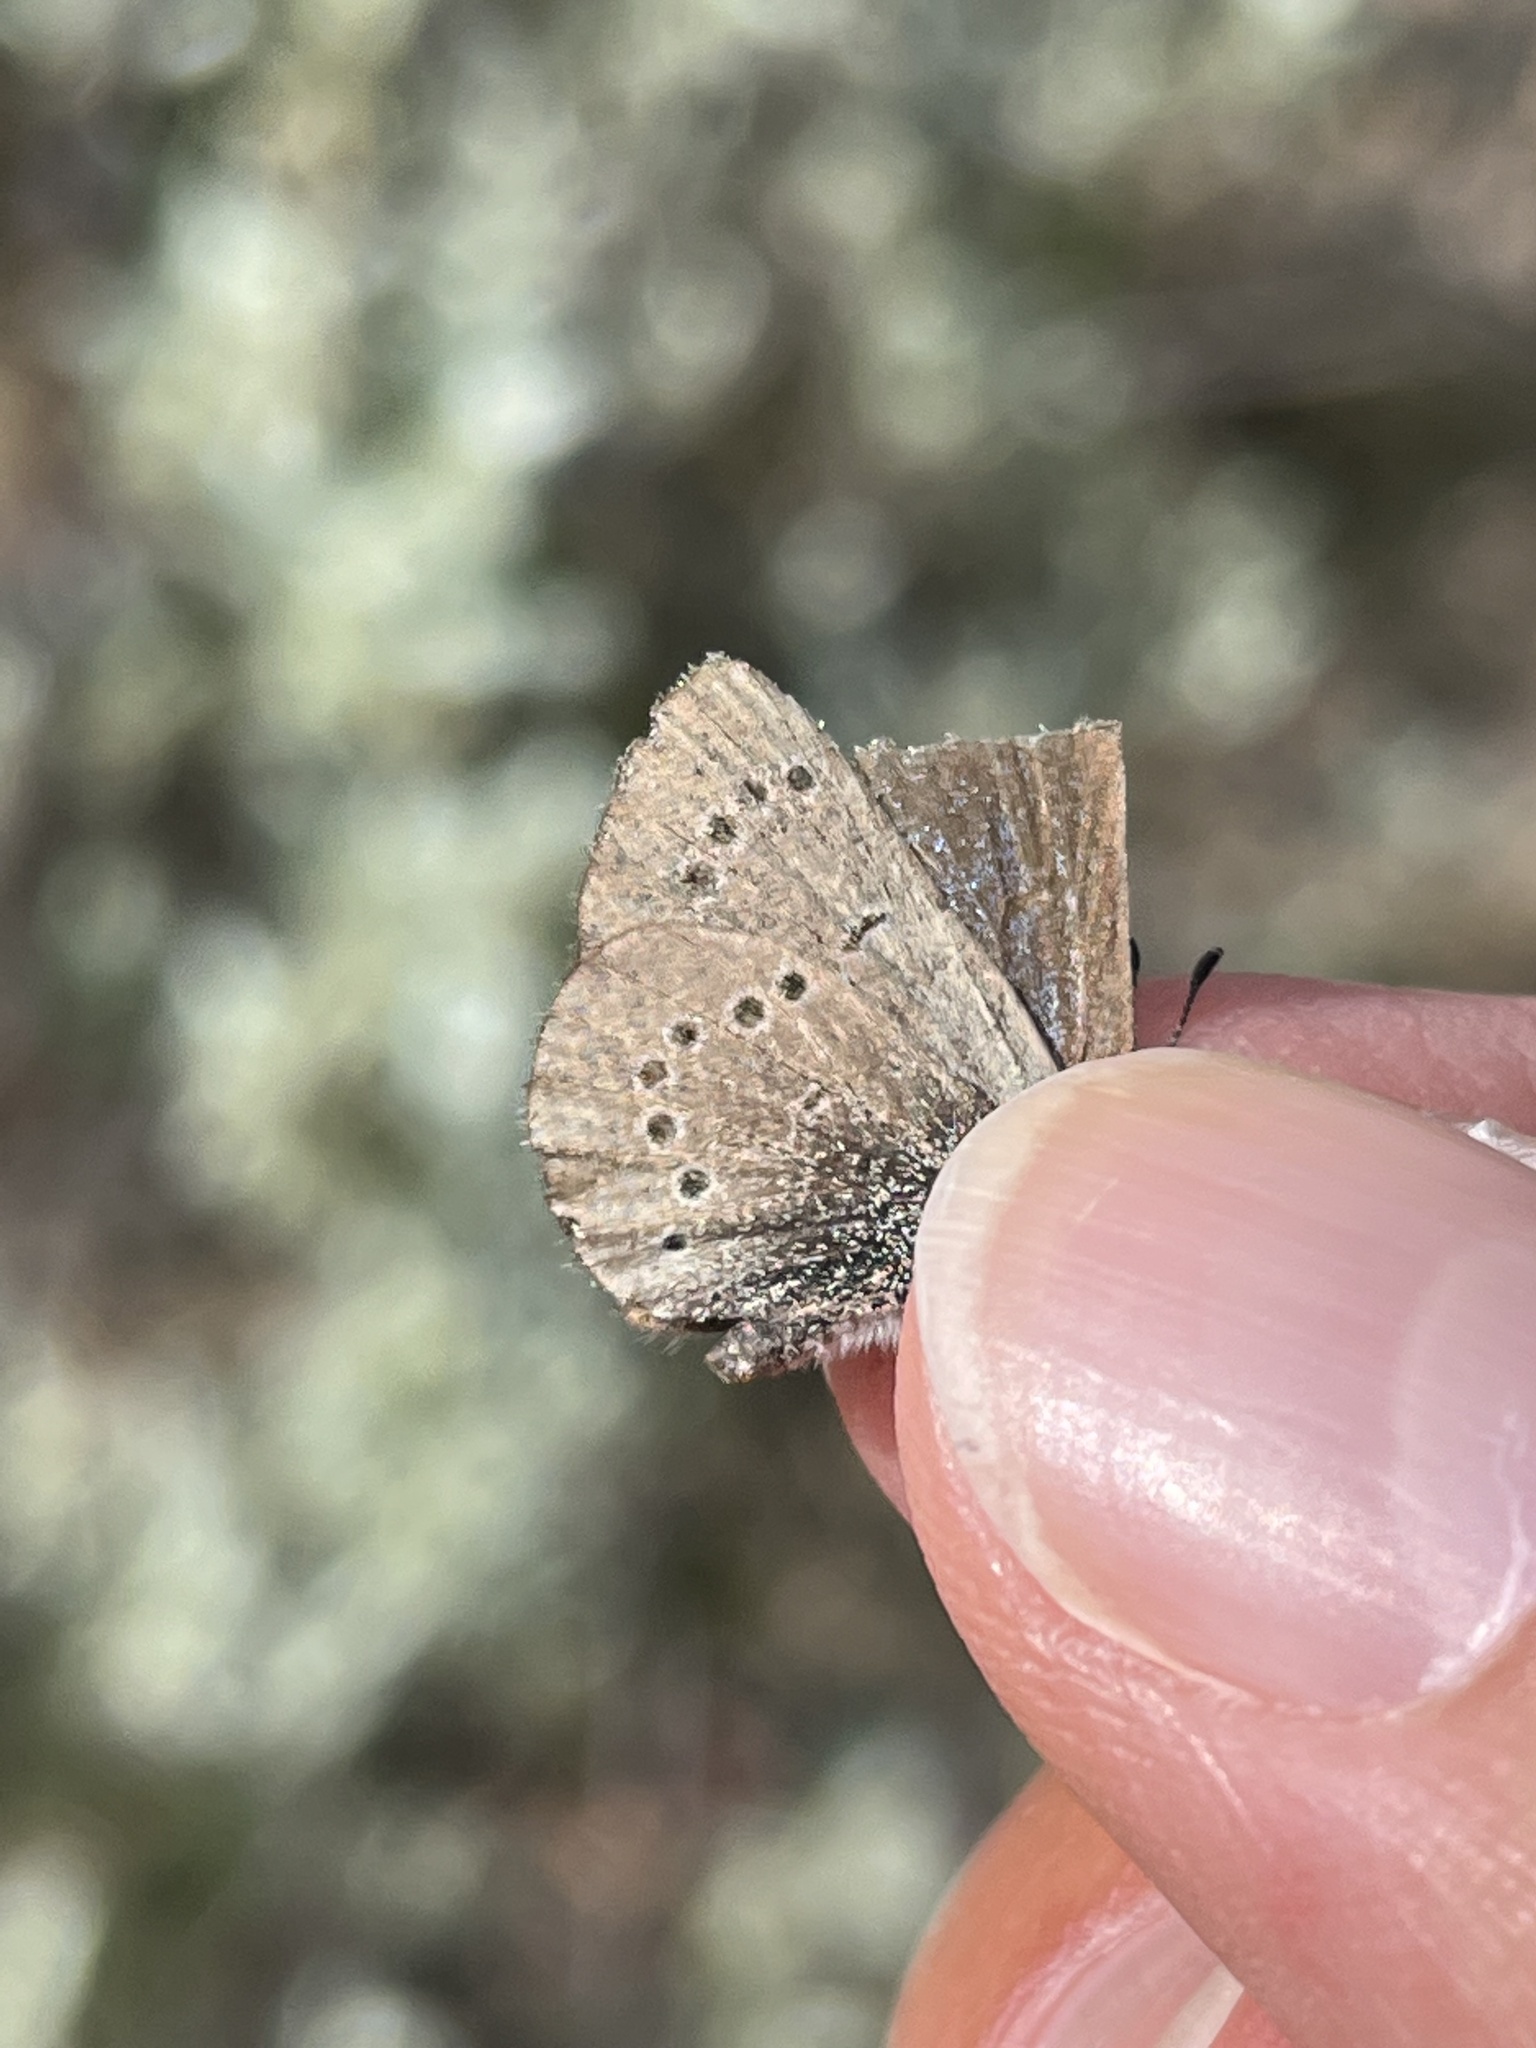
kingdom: Animalia
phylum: Arthropoda
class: Insecta
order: Lepidoptera
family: Lycaenidae
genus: Glaucopsyche
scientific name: Glaucopsyche lygdamus
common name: Silvery blue
